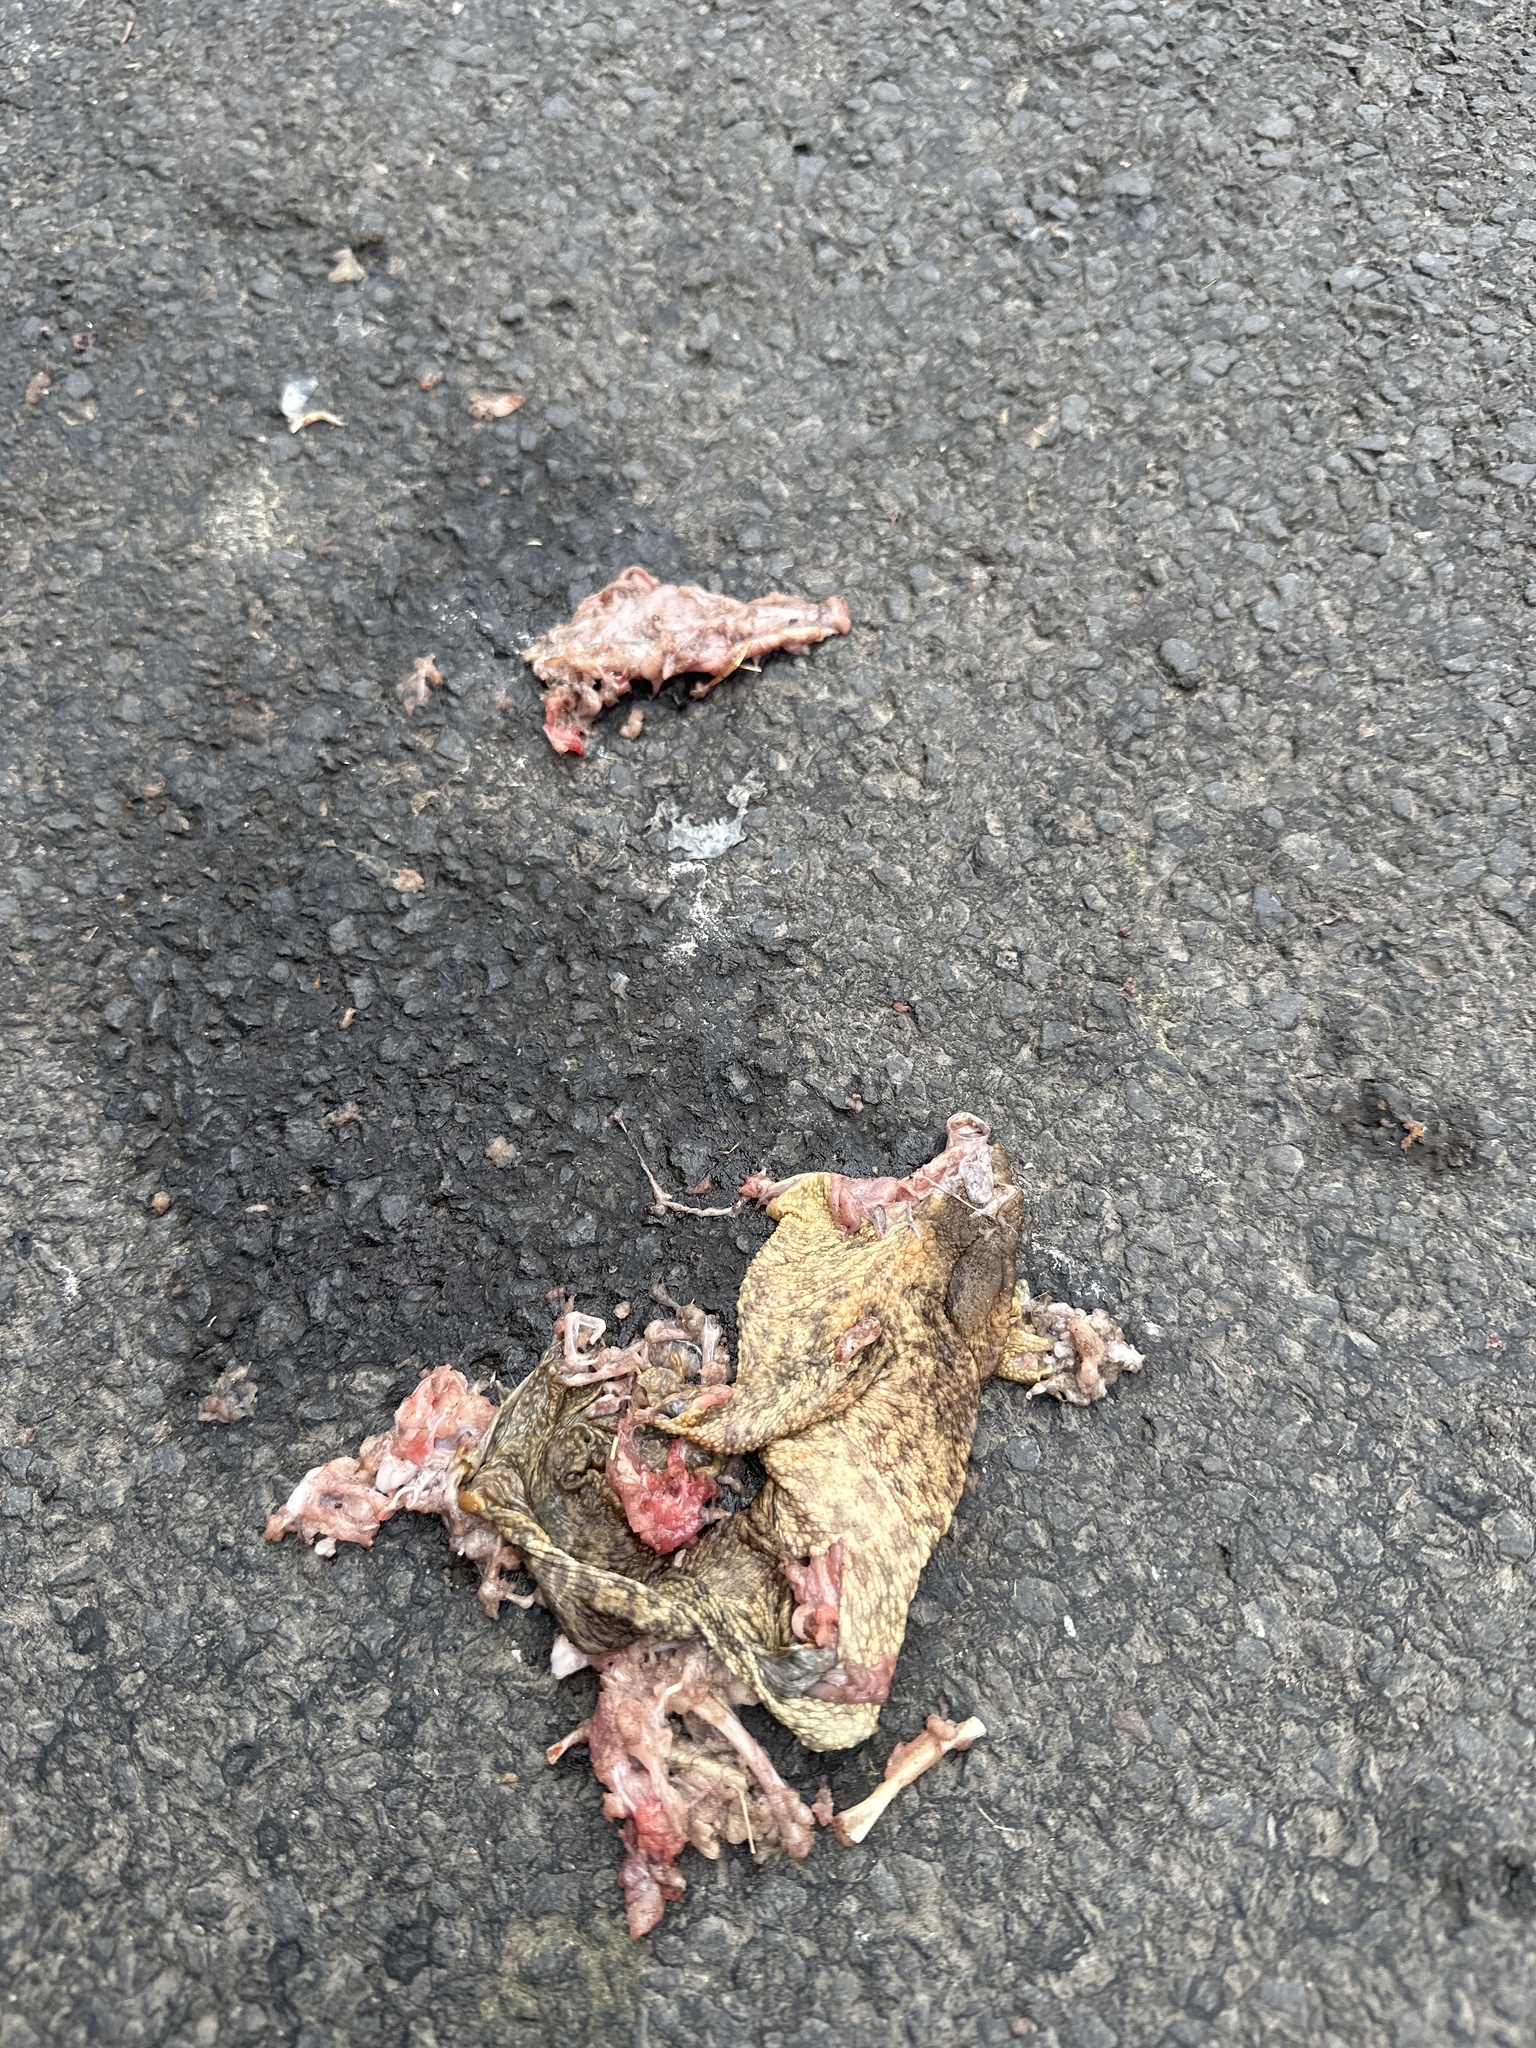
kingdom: Animalia
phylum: Chordata
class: Amphibia
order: Anura
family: Bufonidae
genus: Bufo
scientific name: Bufo bufo
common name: Common toad
